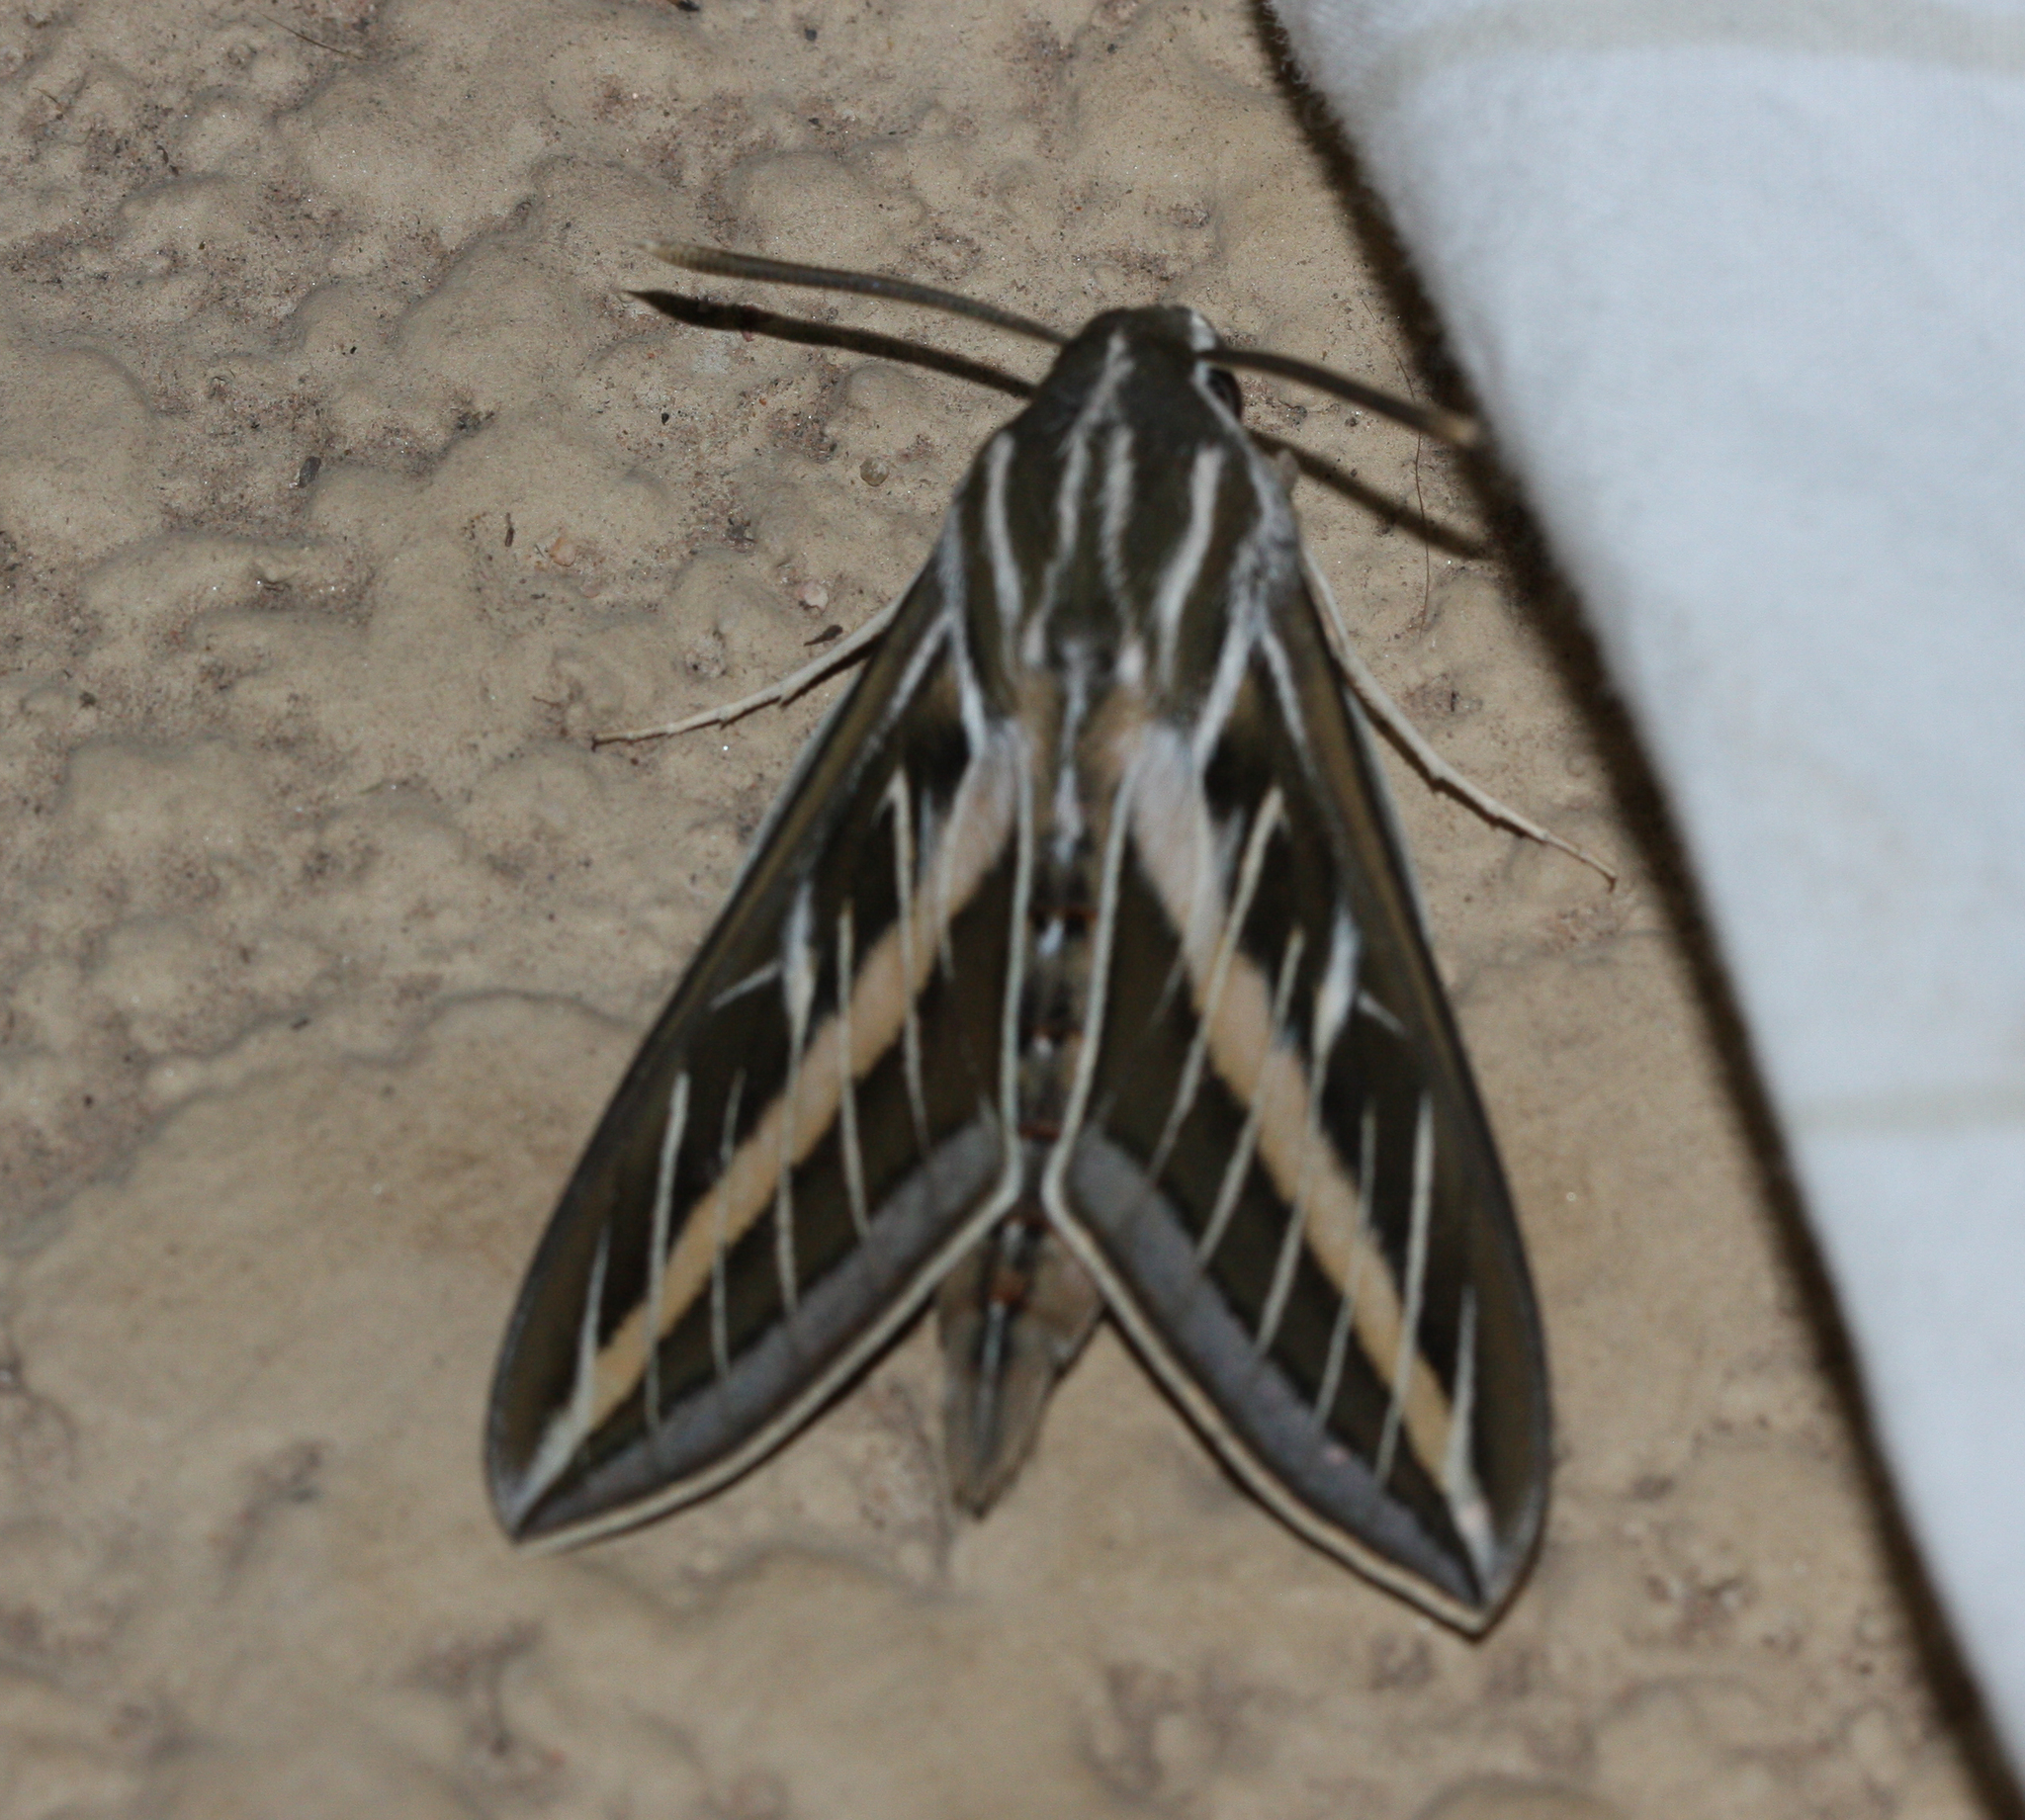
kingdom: Animalia
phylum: Arthropoda
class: Insecta
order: Lepidoptera
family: Sphingidae
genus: Hyles
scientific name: Hyles lineata
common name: White-lined sphinx
